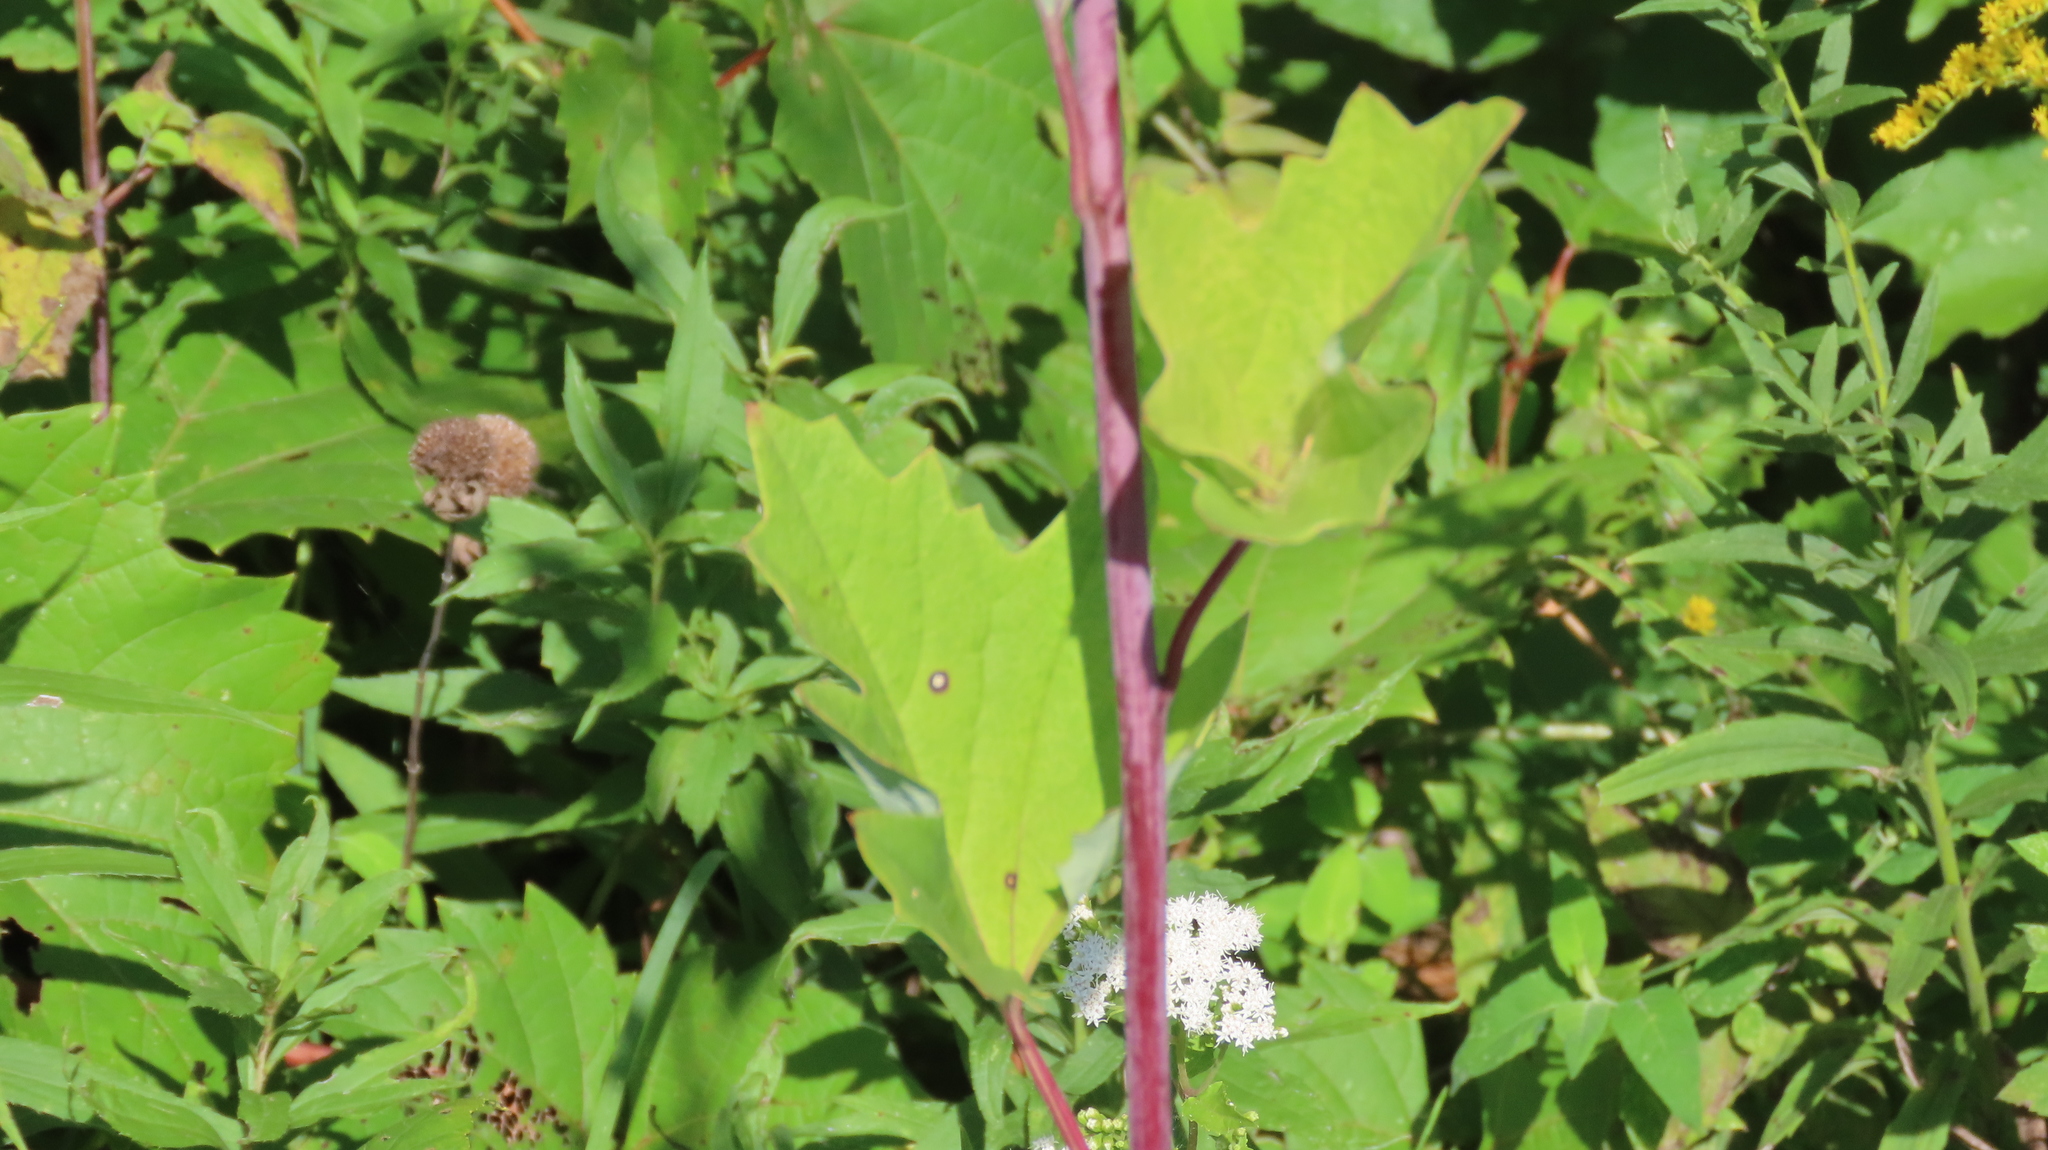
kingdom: Plantae
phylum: Tracheophyta
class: Magnoliopsida
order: Asterales
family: Asteraceae
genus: Arnoglossum
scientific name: Arnoglossum atriplicifolium
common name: Pale indian-plantain
